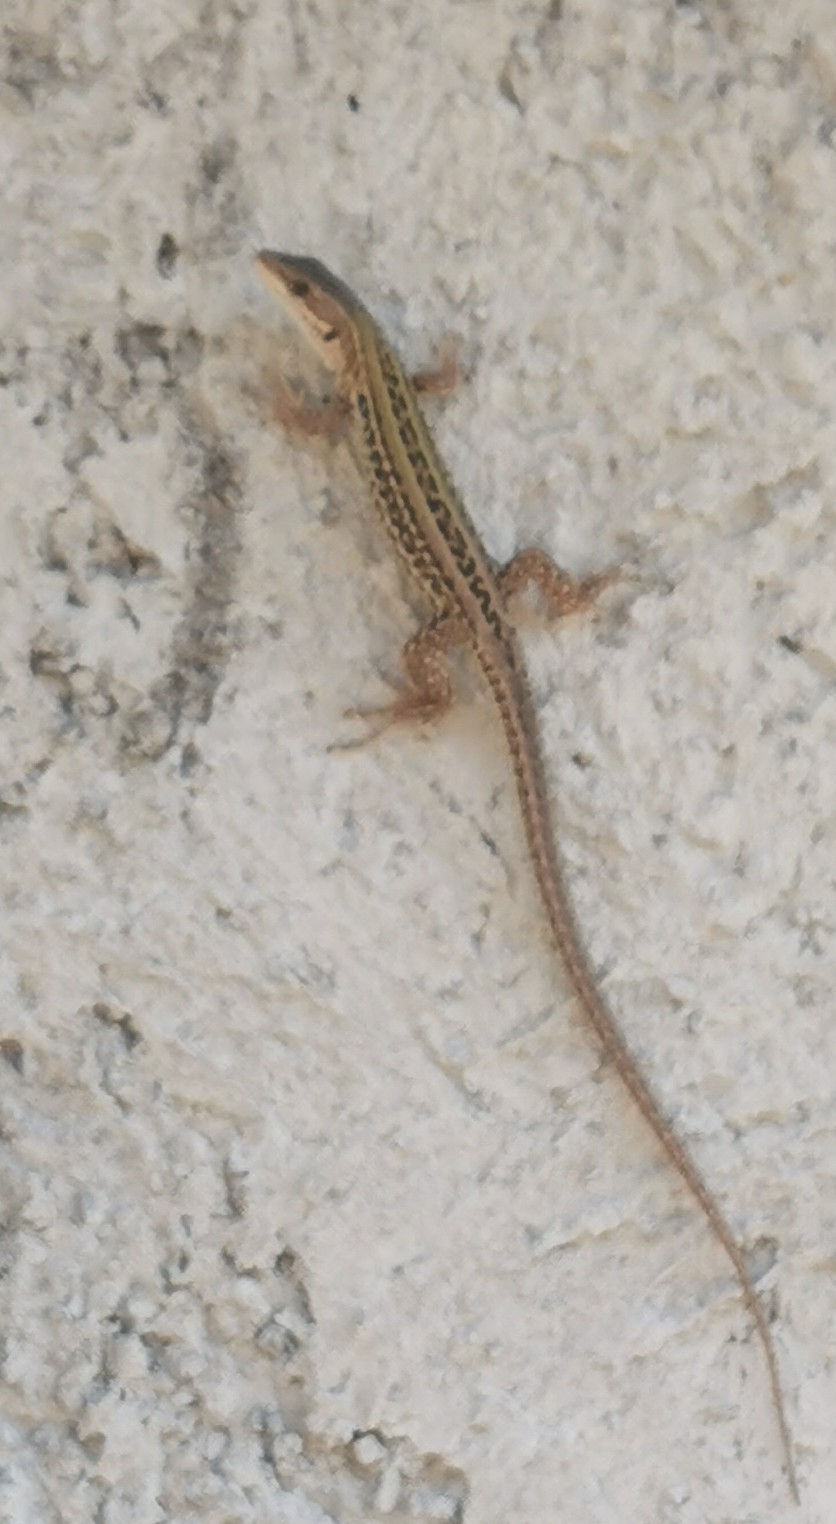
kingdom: Animalia
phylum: Chordata
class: Squamata
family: Lacertidae
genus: Podarcis
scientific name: Podarcis siculus
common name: Italian wall lizard
